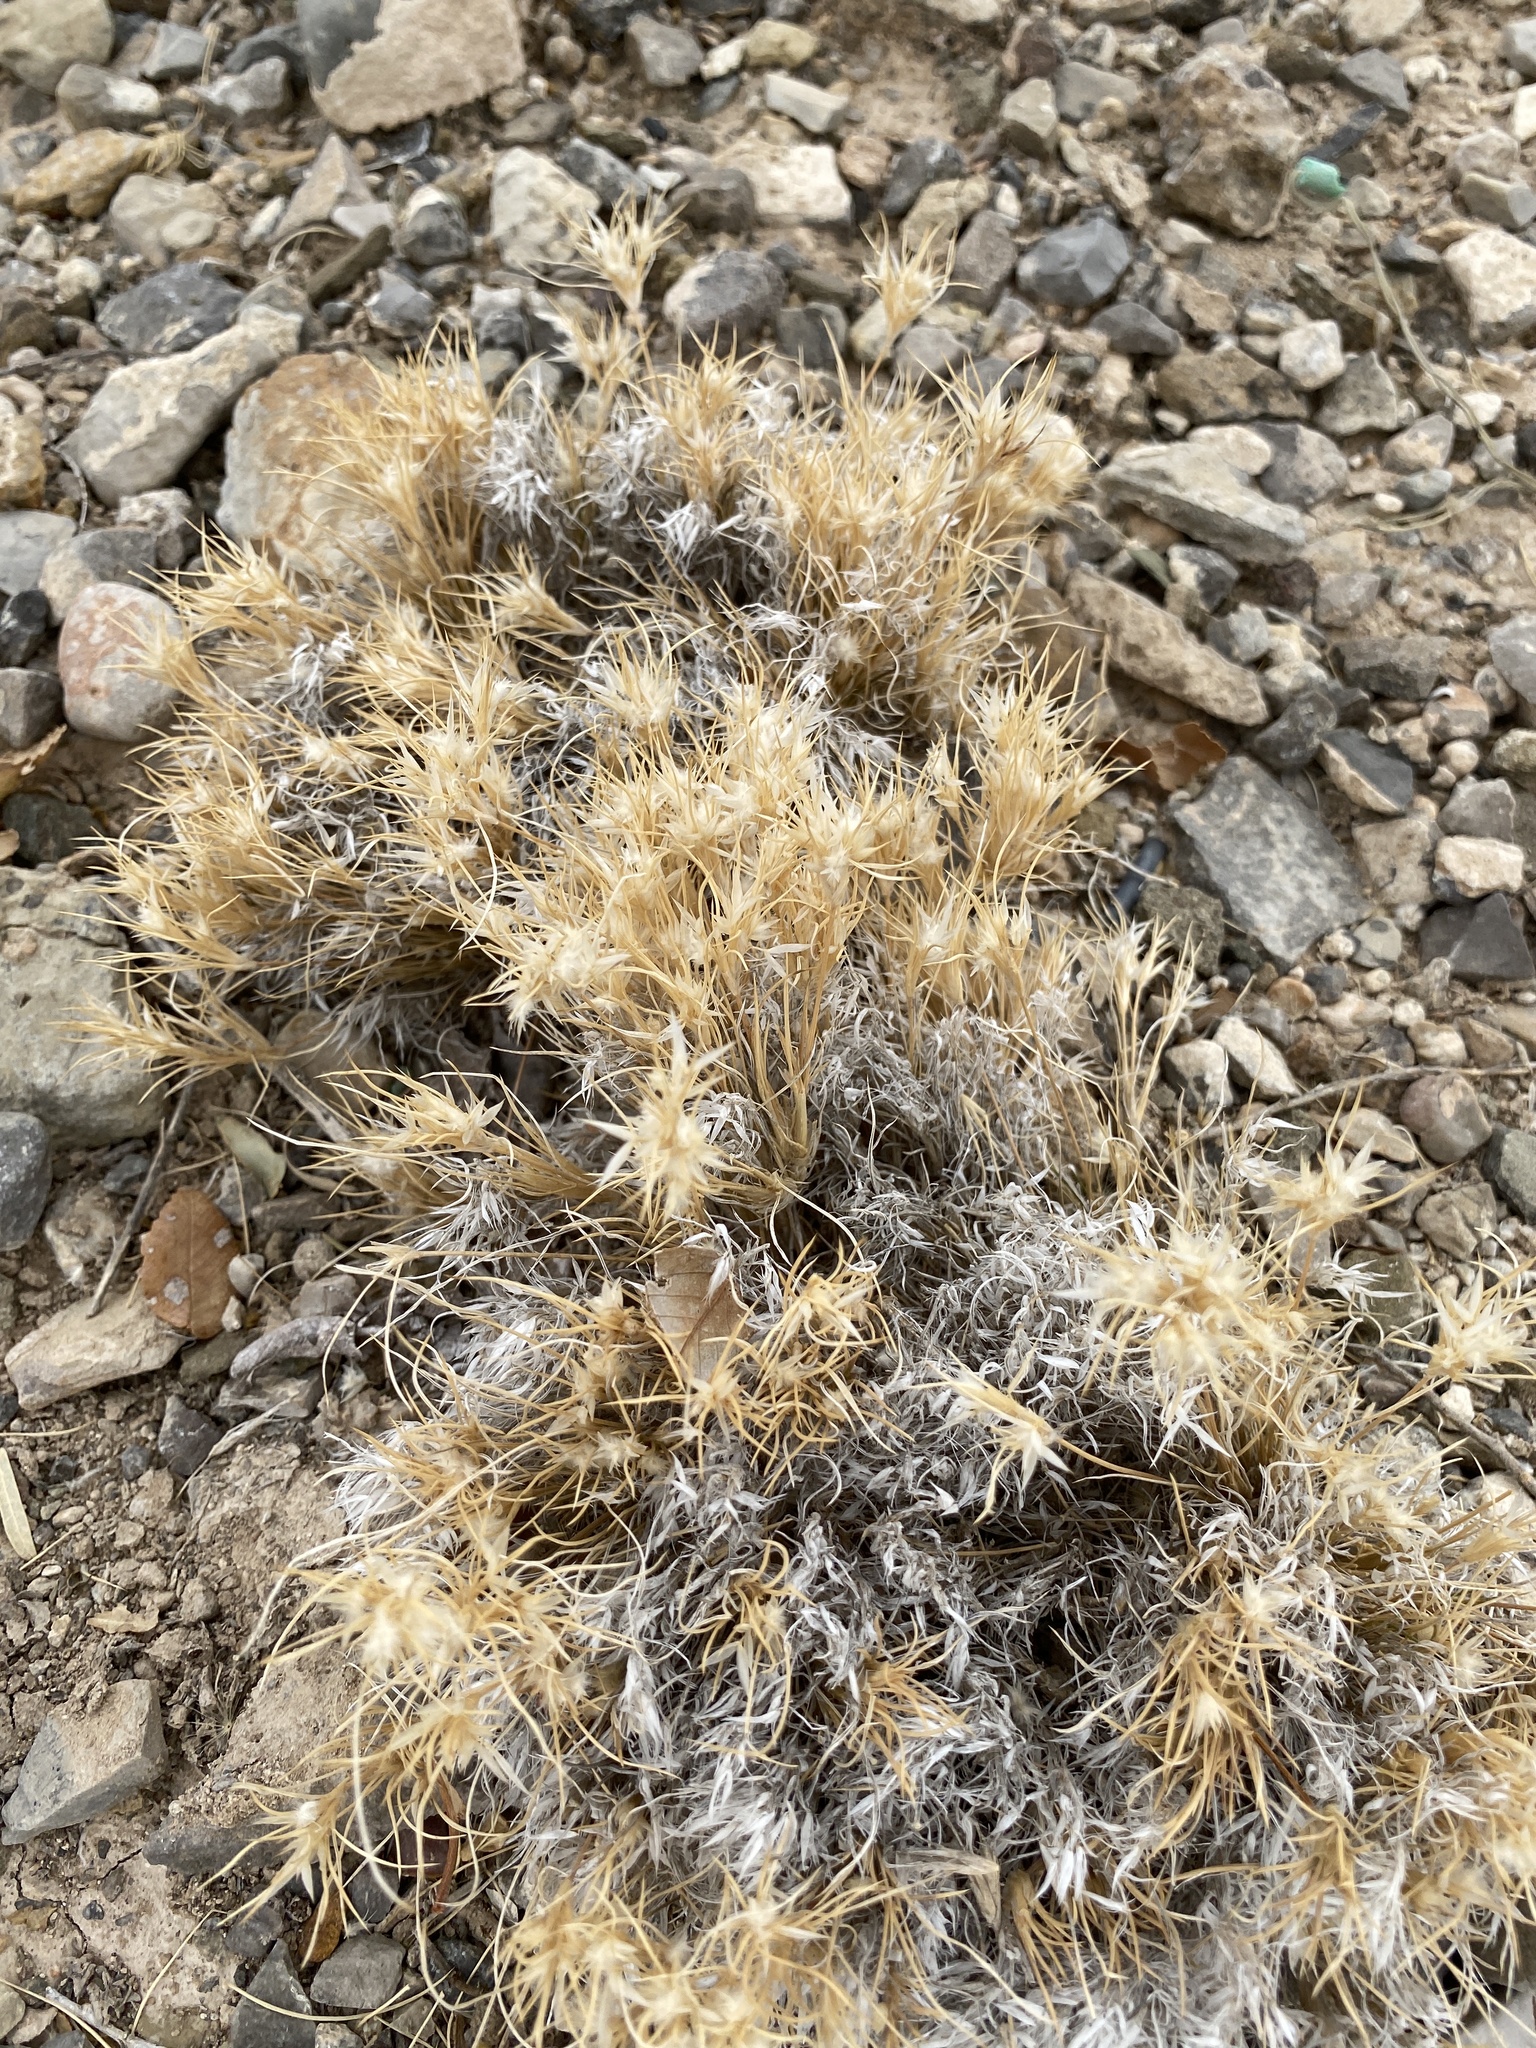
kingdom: Plantae
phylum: Tracheophyta
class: Liliopsida
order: Poales
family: Poaceae
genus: Dasyochloa
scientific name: Dasyochloa pulchella
